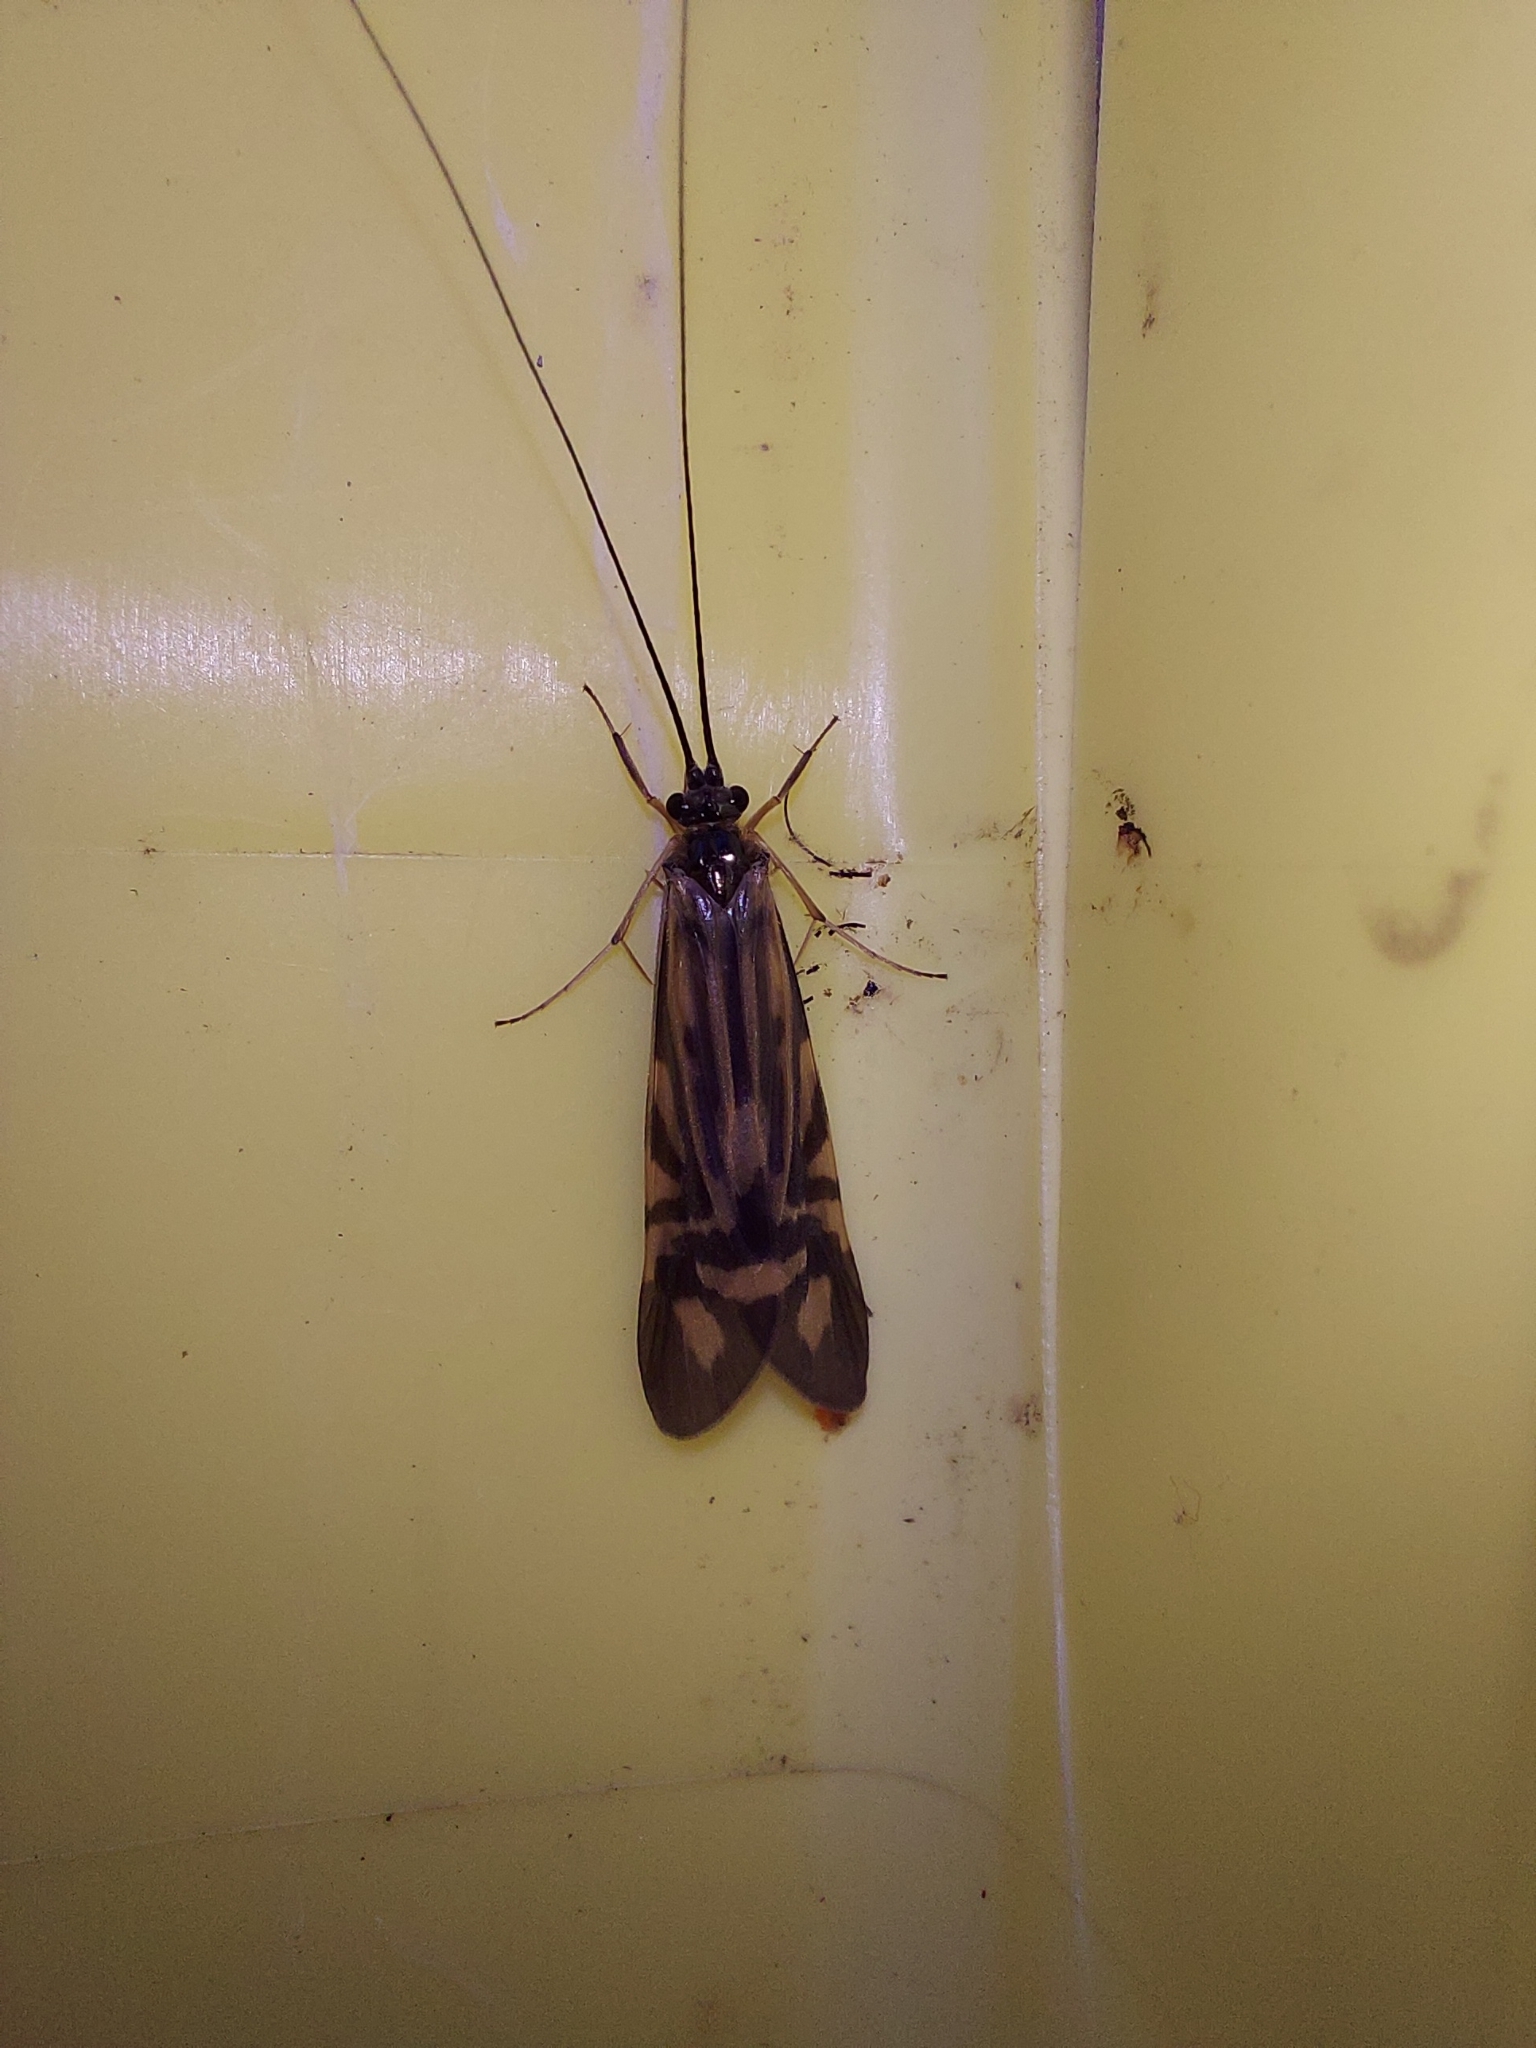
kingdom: Animalia
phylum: Arthropoda
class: Insecta
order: Trichoptera
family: Hydropsychidae
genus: Macrostemum
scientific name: Macrostemum zebratum
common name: Zebra caddisfly
